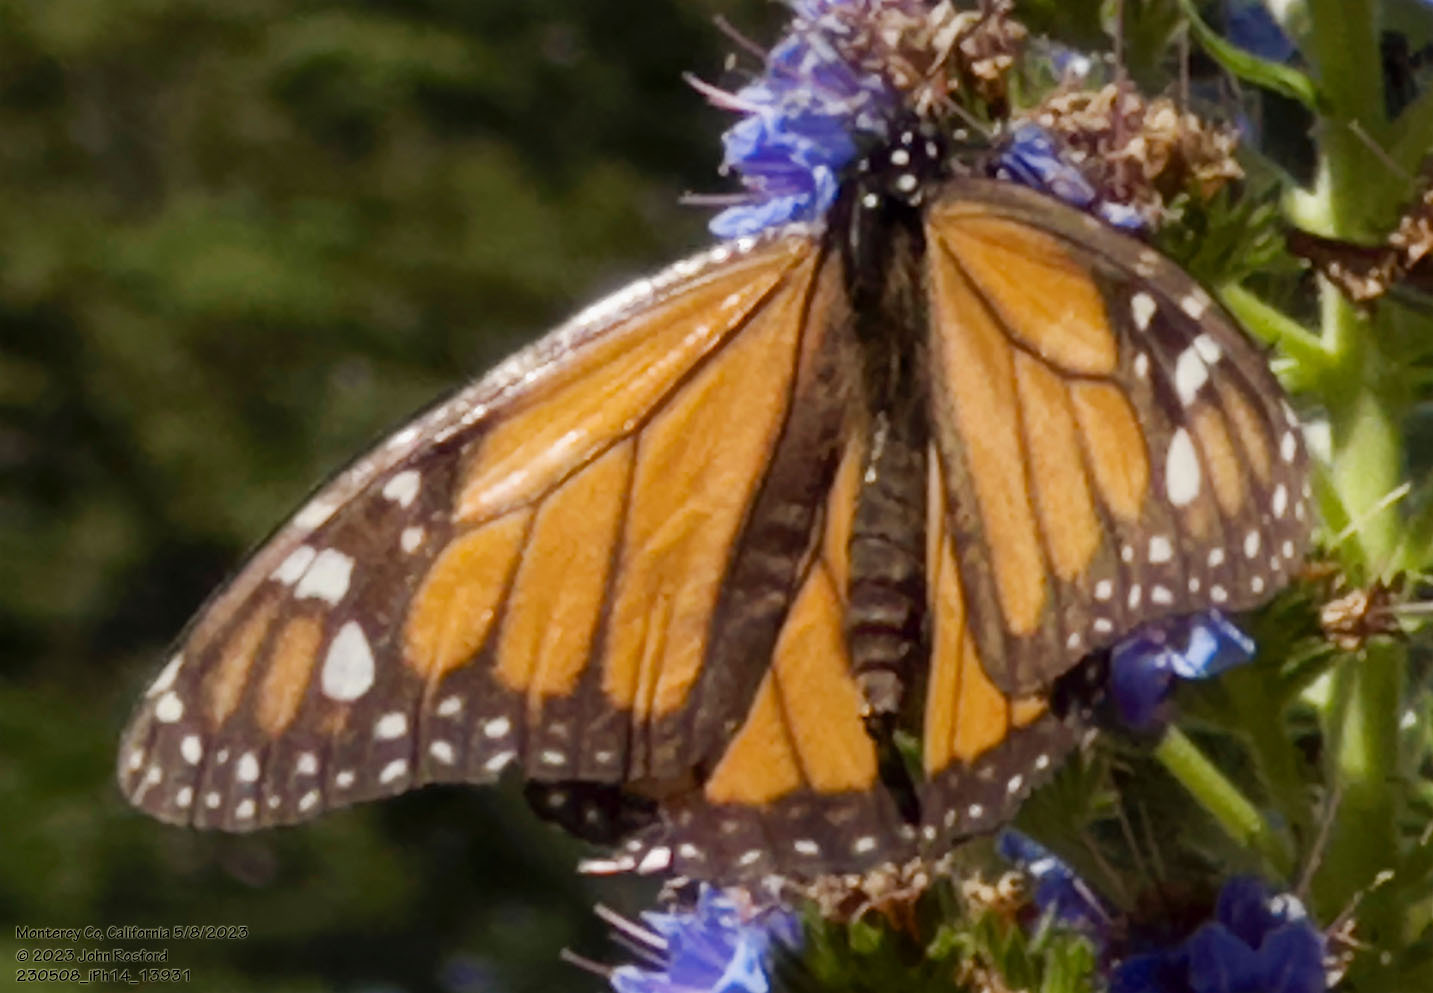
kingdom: Animalia
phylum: Arthropoda
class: Insecta
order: Lepidoptera
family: Nymphalidae
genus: Danaus
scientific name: Danaus plexippus
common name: Monarch
